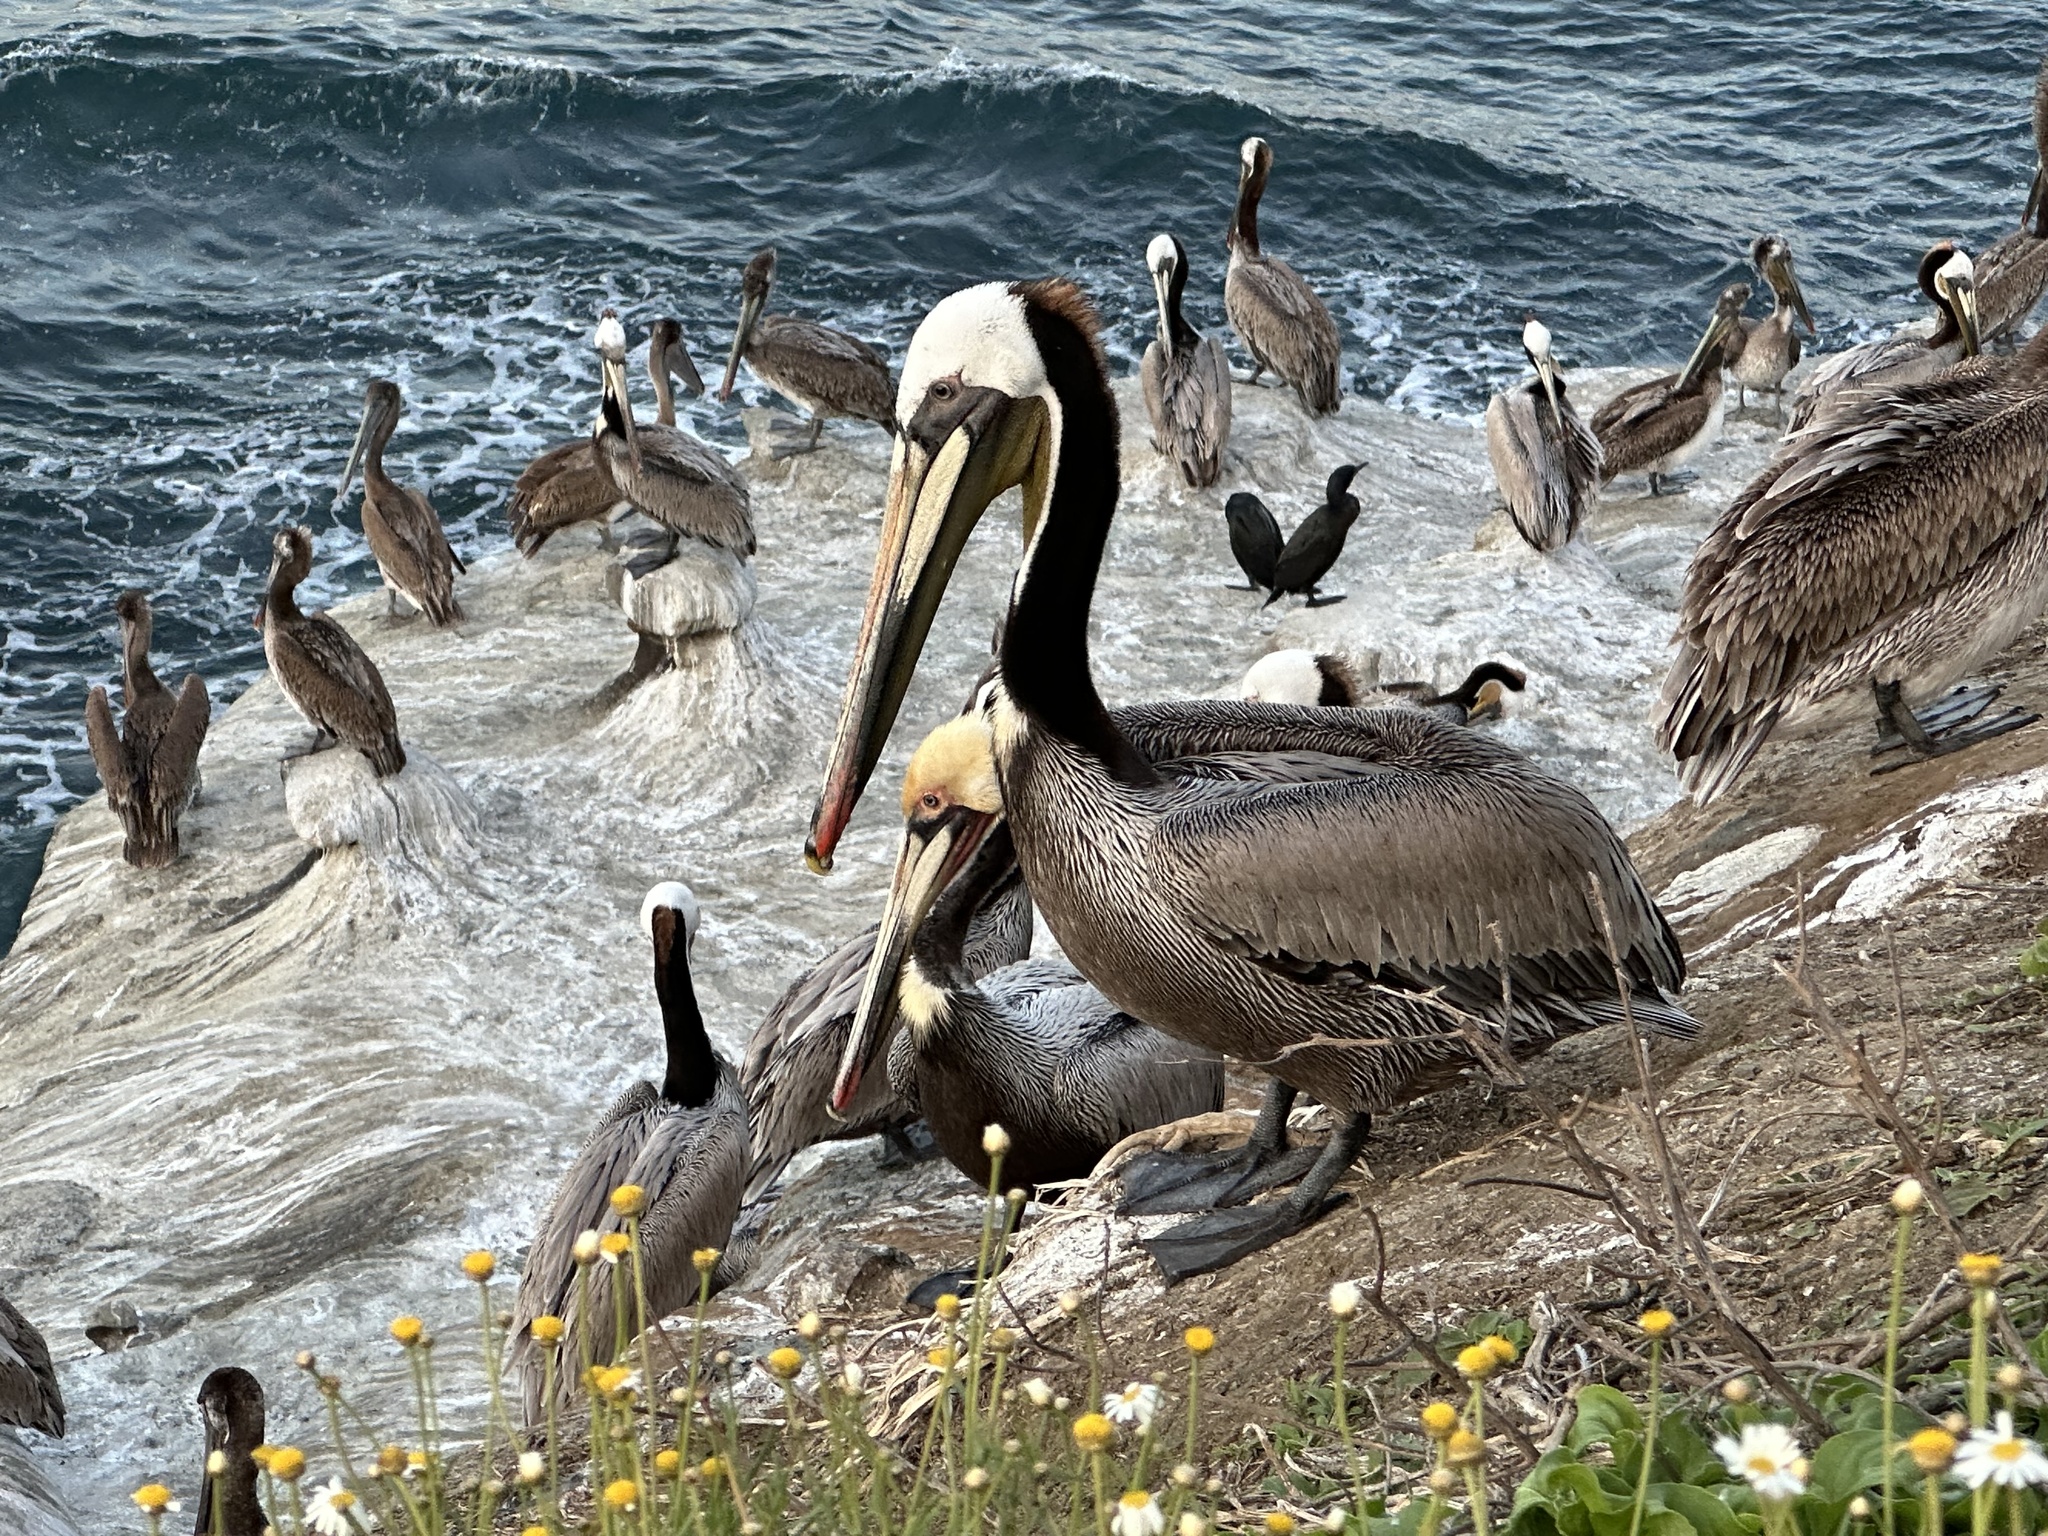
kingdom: Animalia
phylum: Chordata
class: Aves
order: Pelecaniformes
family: Pelecanidae
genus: Pelecanus
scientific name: Pelecanus occidentalis
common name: Brown pelican
